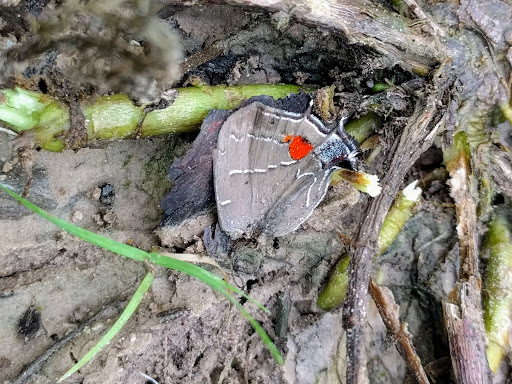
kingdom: Animalia
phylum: Arthropoda
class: Insecta
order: Lepidoptera
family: Lycaenidae
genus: Parrhasius
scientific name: Parrhasius m-album
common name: White m hairstreak
